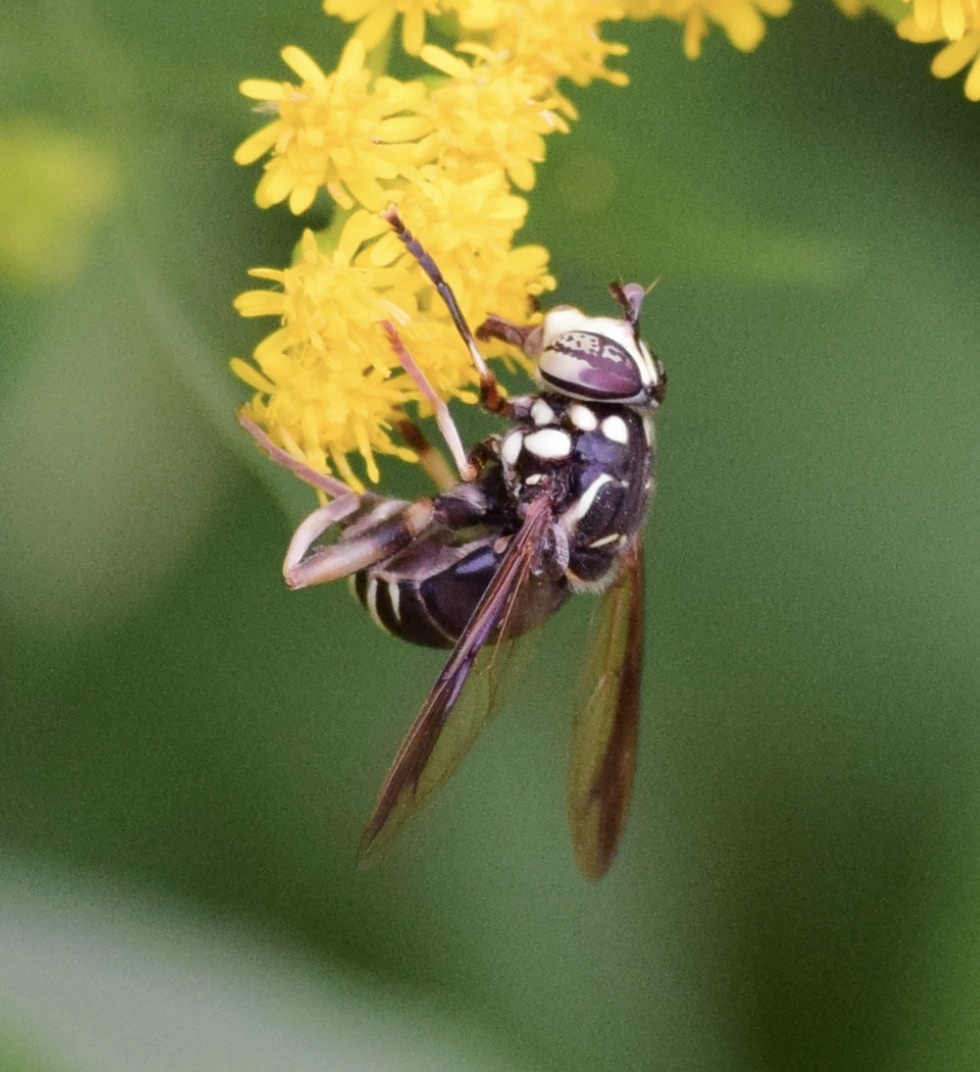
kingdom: Animalia
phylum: Arthropoda
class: Insecta
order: Diptera
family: Syrphidae
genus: Spilomyia
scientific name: Spilomyia fusca
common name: Bald-faced hornet fly
